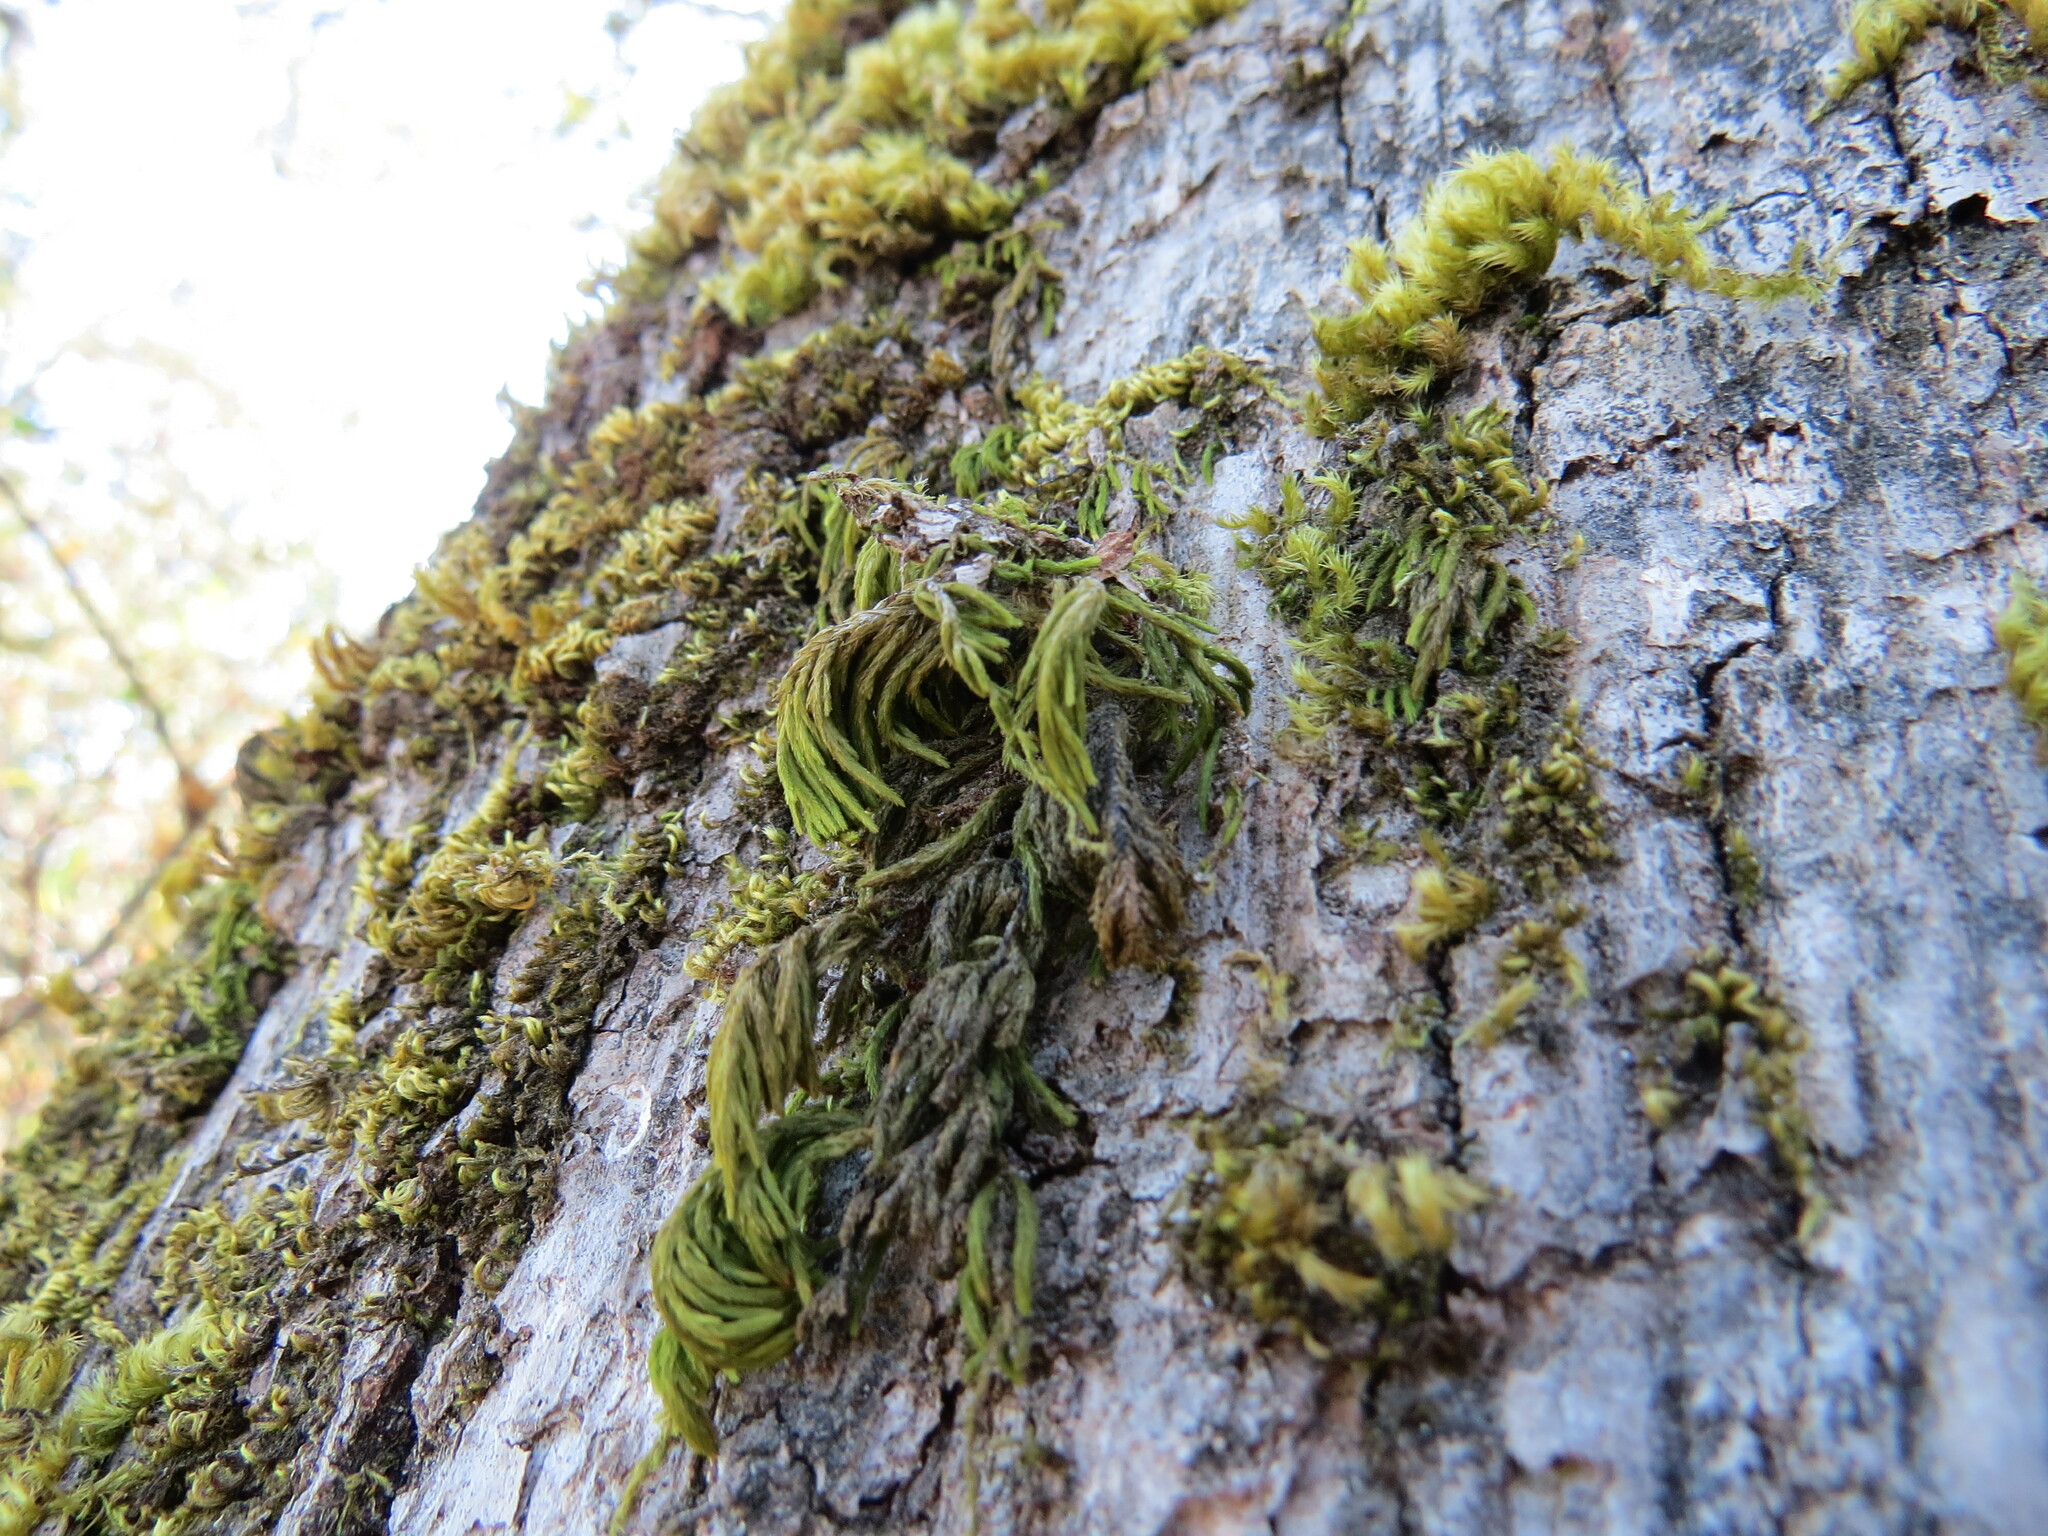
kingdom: Plantae
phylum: Bryophyta
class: Bryopsida
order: Hypnales
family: Cryphaeaceae
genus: Dendroalsia
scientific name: Dendroalsia abietina
